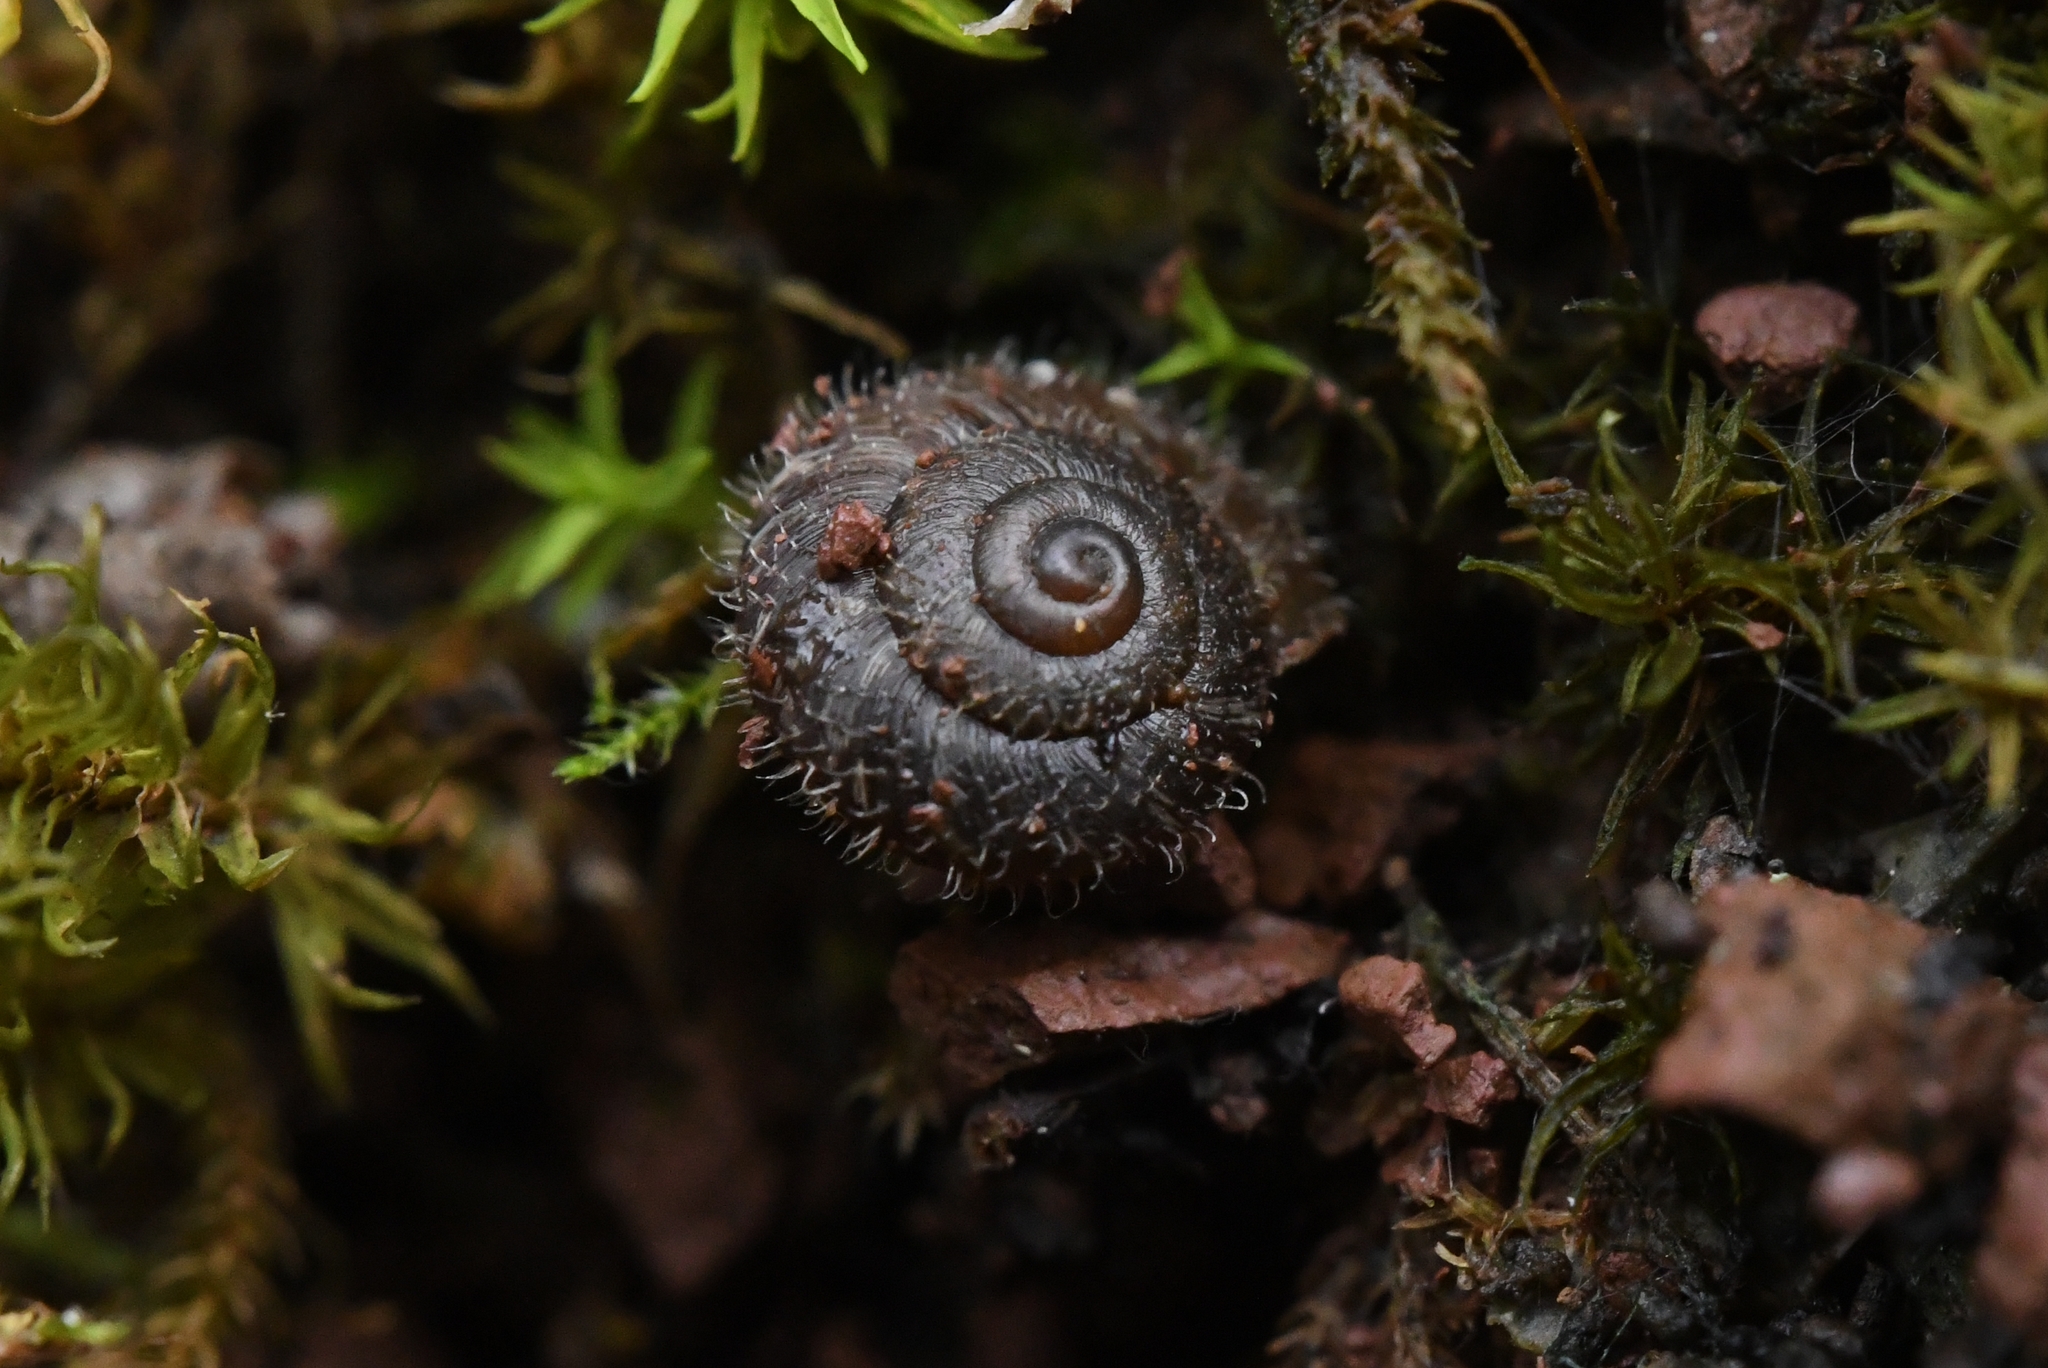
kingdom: Animalia
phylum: Mollusca
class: Gastropoda
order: Stylommatophora
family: Geomitridae
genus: Xerotricha
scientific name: Xerotricha conspurcata
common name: Snail
